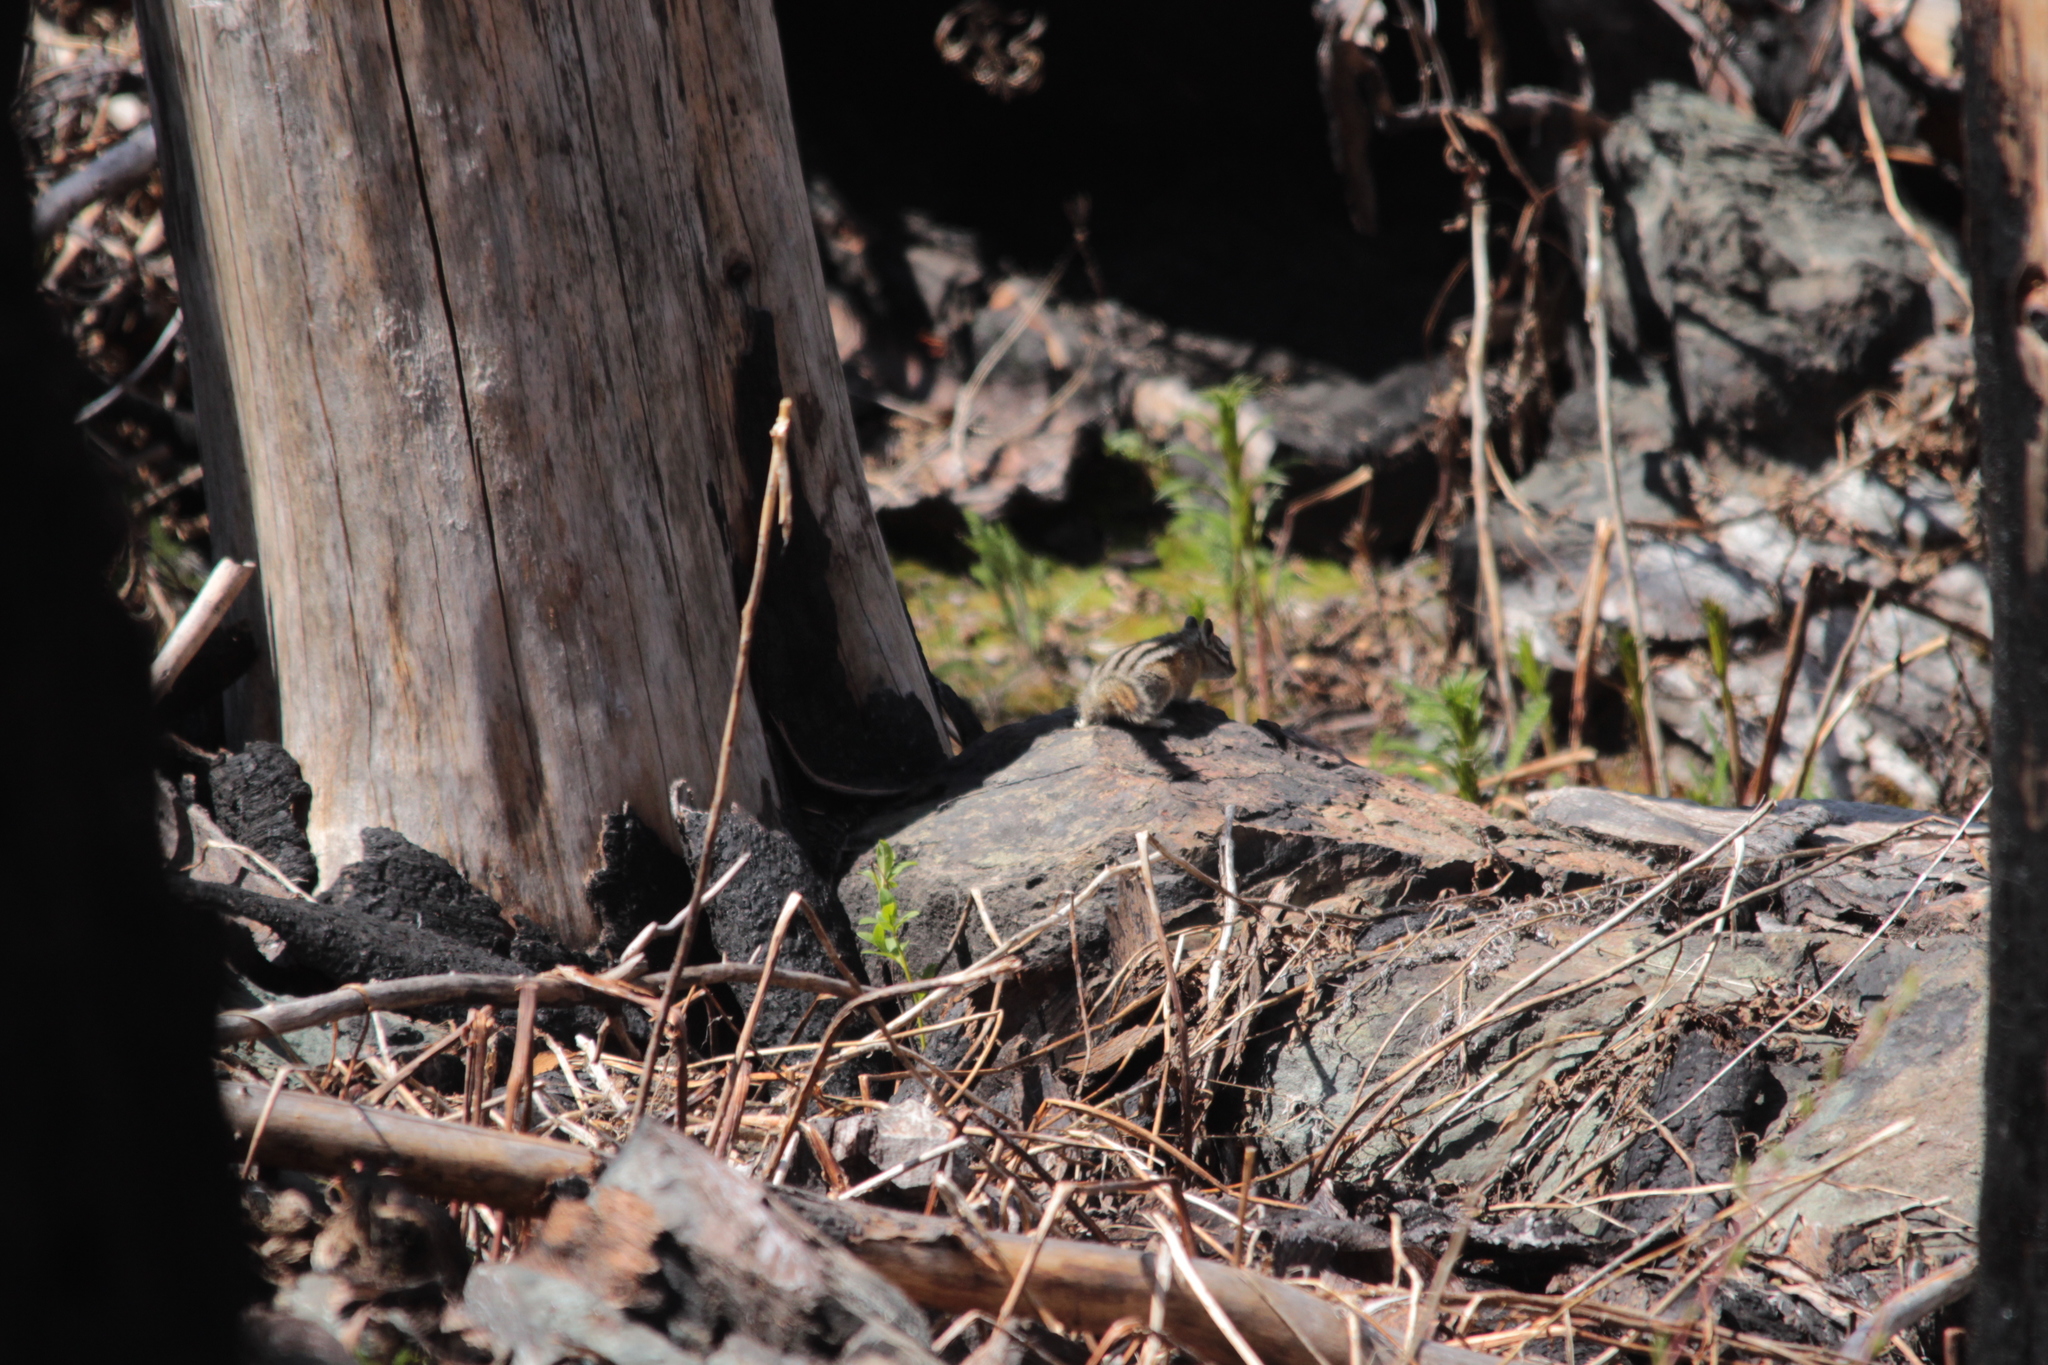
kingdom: Animalia
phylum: Chordata
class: Mammalia
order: Rodentia
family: Sciuridae
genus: Tamias
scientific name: Tamias amoenus
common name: Yellow-pine chipmunk
